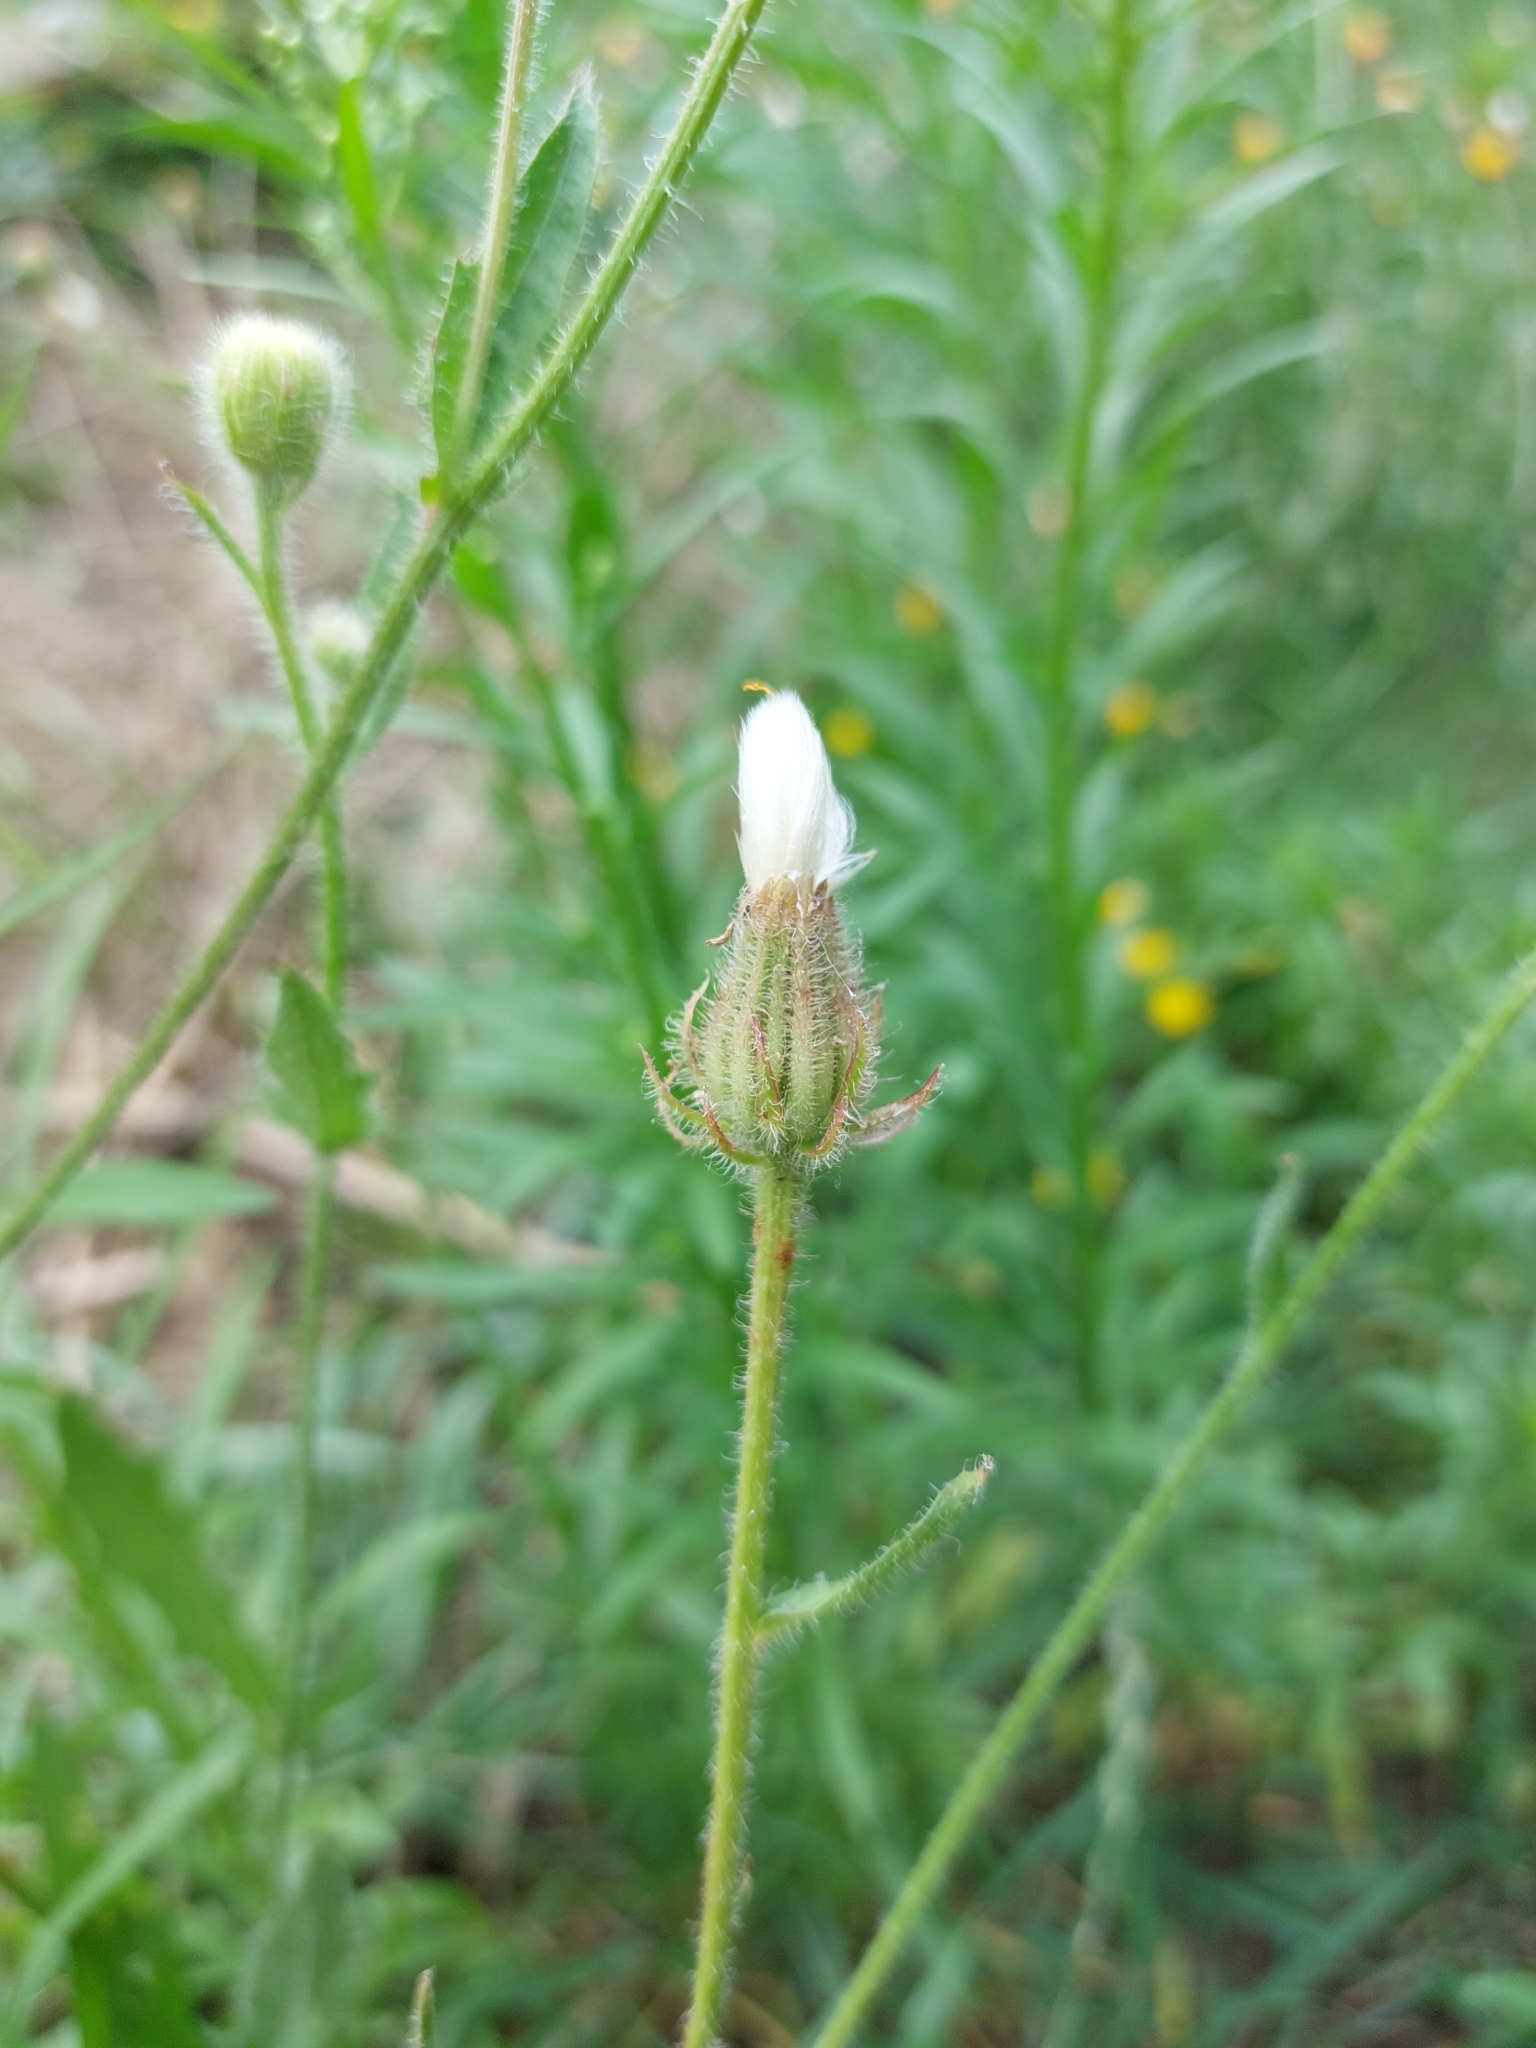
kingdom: Plantae
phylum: Tracheophyta
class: Magnoliopsida
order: Asterales
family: Asteraceae
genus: Crepis
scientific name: Crepis foetida
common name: Stinking hawk's-beard
